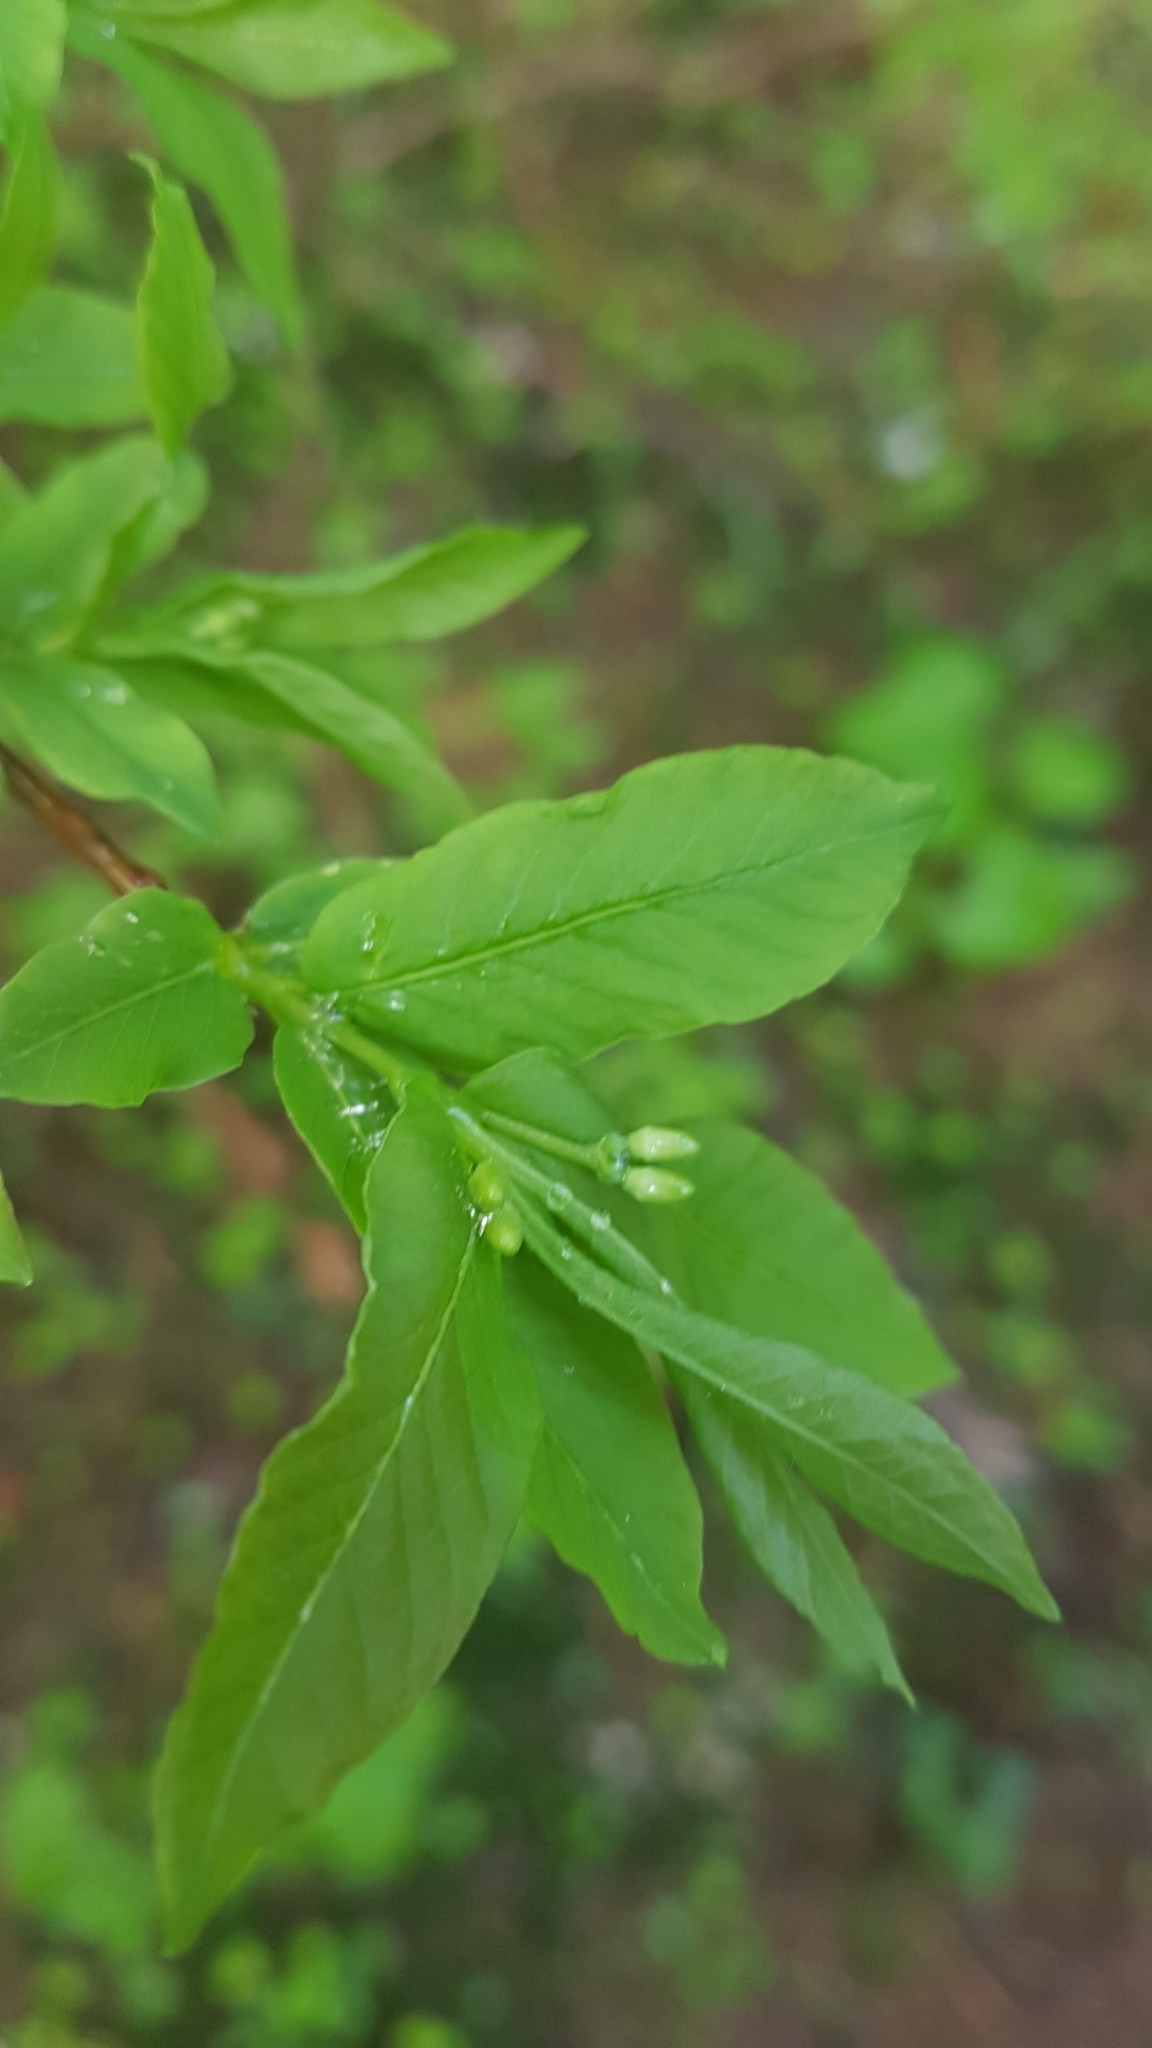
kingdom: Plantae
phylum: Tracheophyta
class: Magnoliopsida
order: Dipsacales
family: Caprifoliaceae
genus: Lonicera
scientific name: Lonicera alpigena
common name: Alpine honeysuckle
